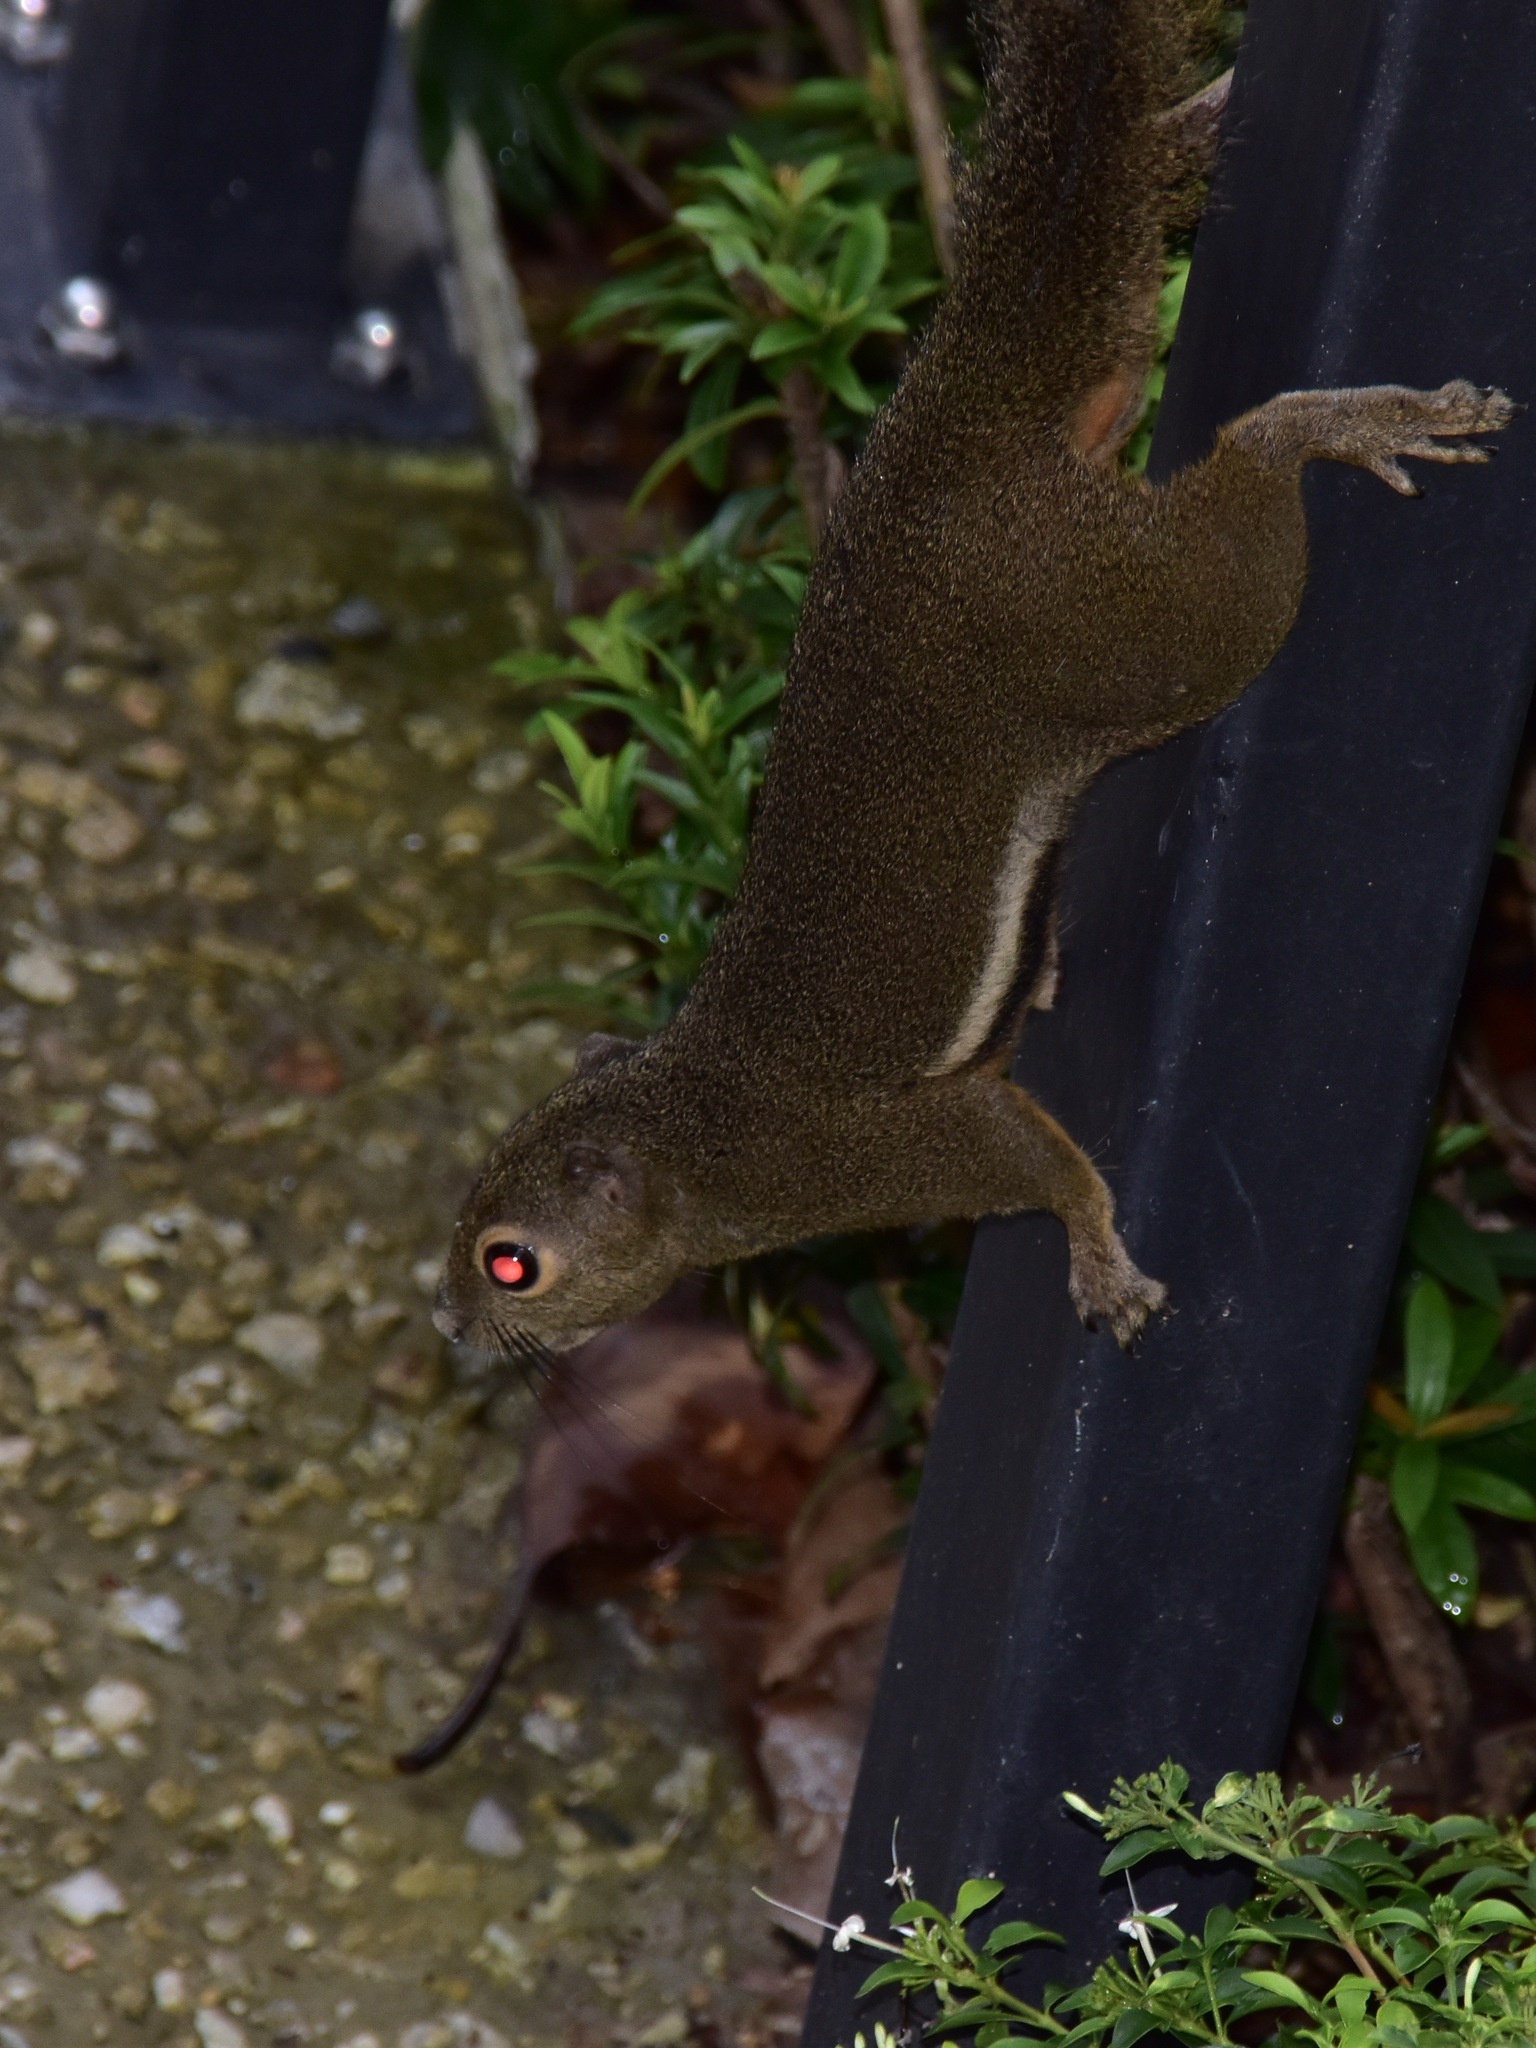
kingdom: Animalia
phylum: Chordata
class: Mammalia
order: Rodentia
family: Sciuridae
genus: Callosciurus
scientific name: Callosciurus notatus
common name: Plantain squirrel
